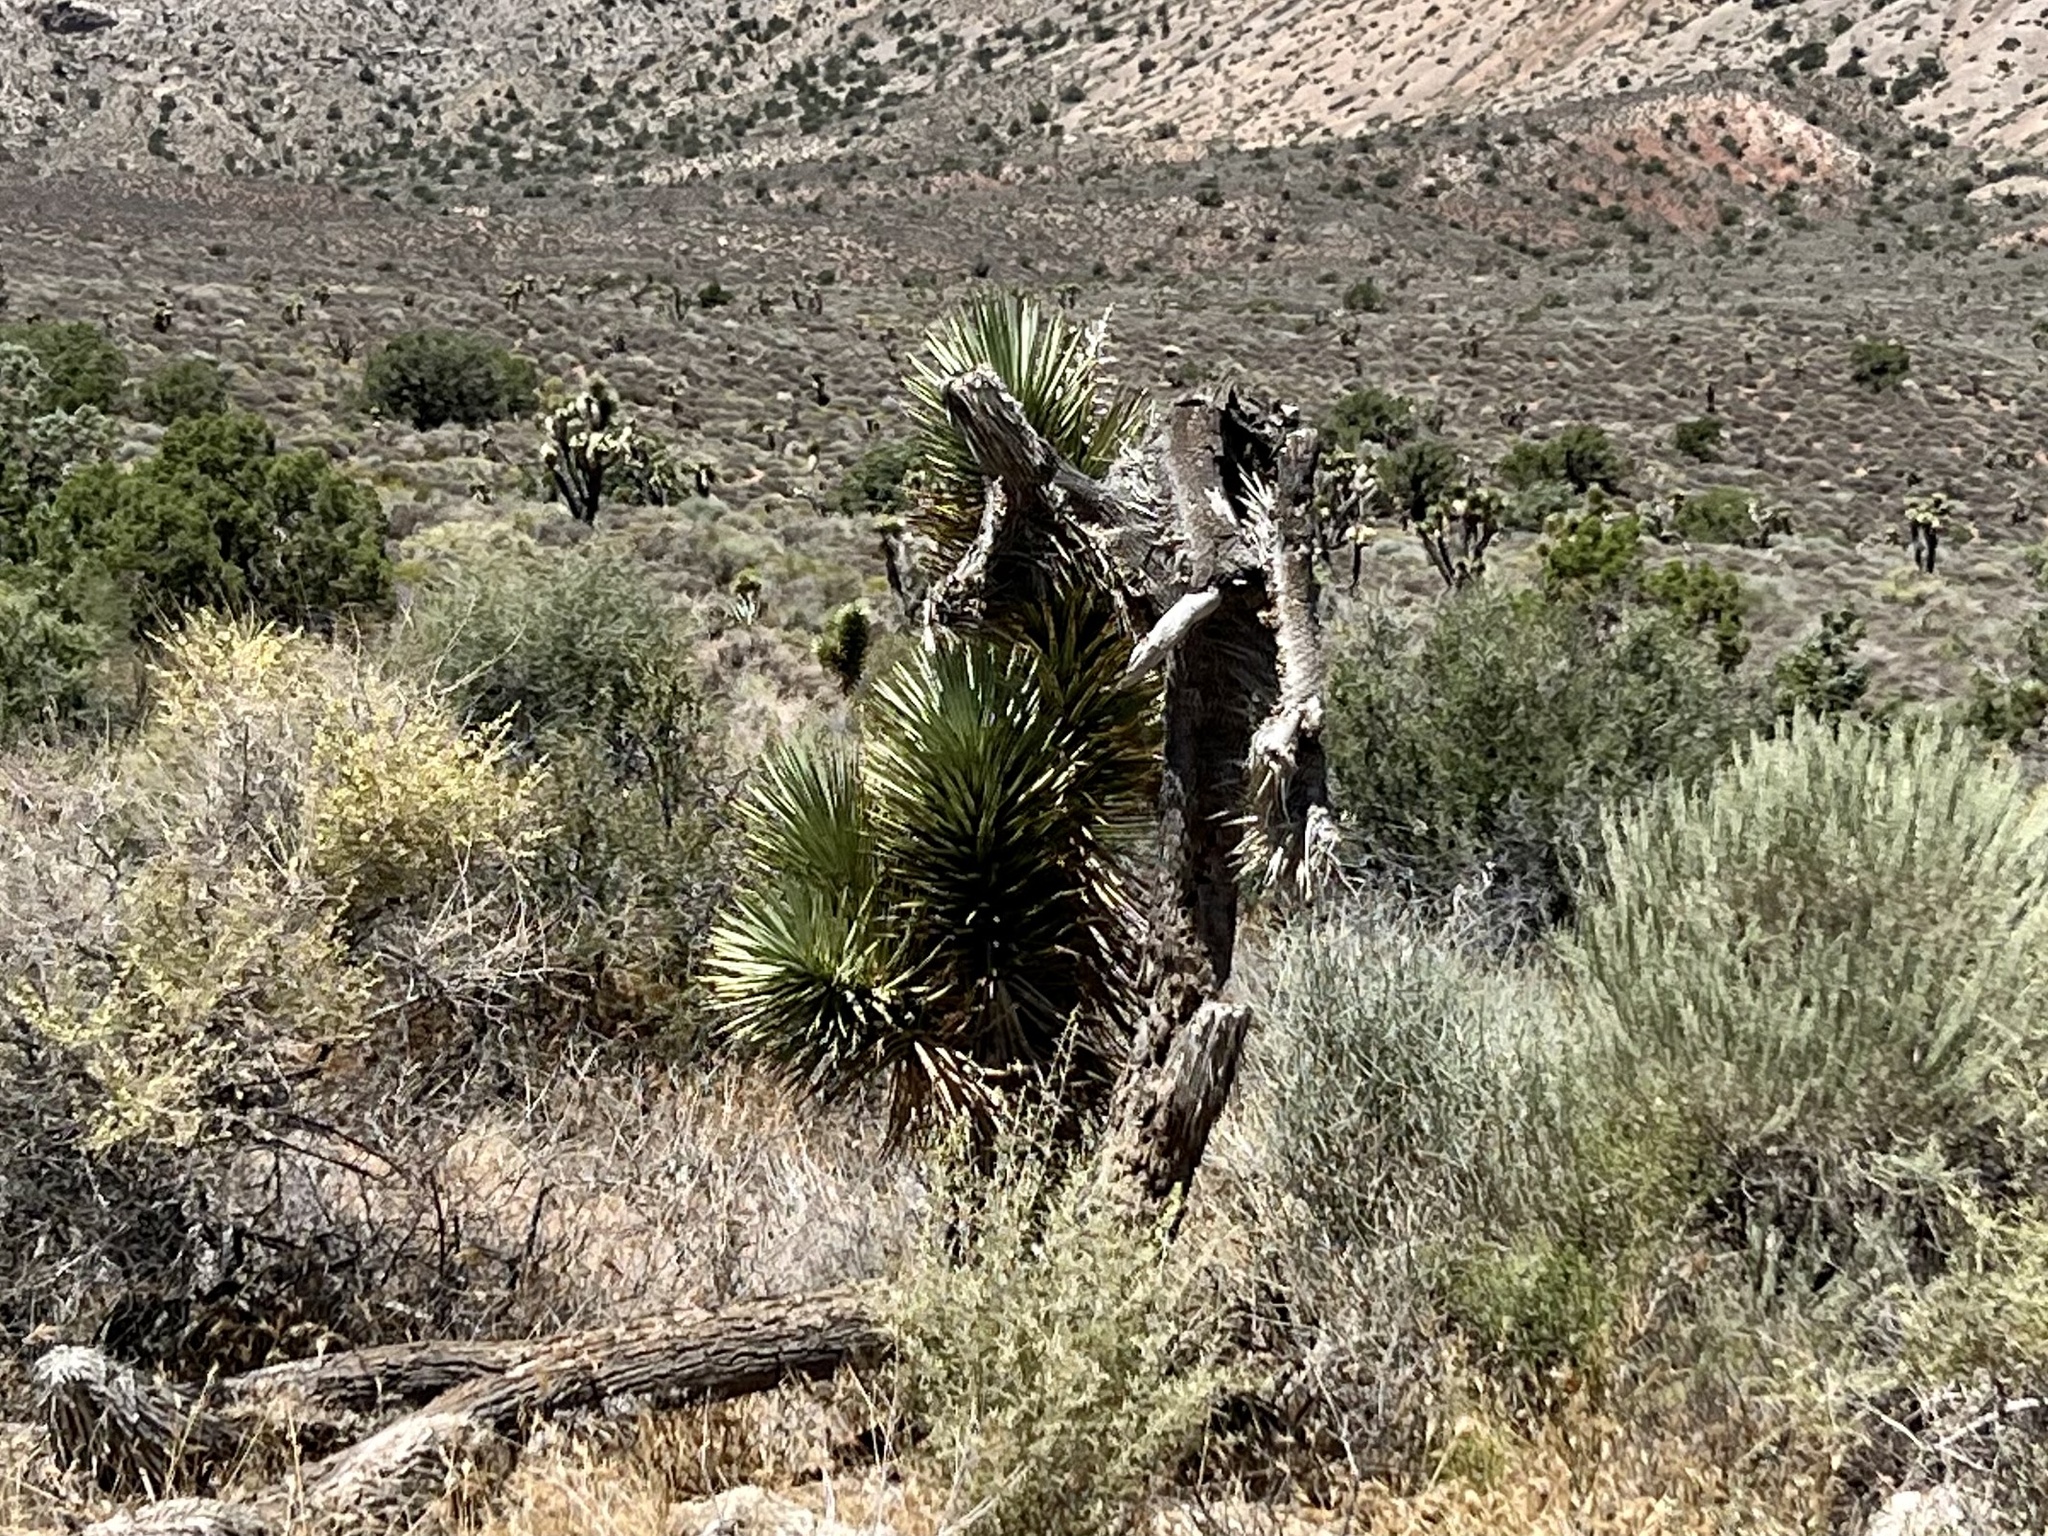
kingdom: Plantae
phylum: Tracheophyta
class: Liliopsida
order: Asparagales
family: Asparagaceae
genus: Yucca
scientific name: Yucca brevifolia
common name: Joshua tree
